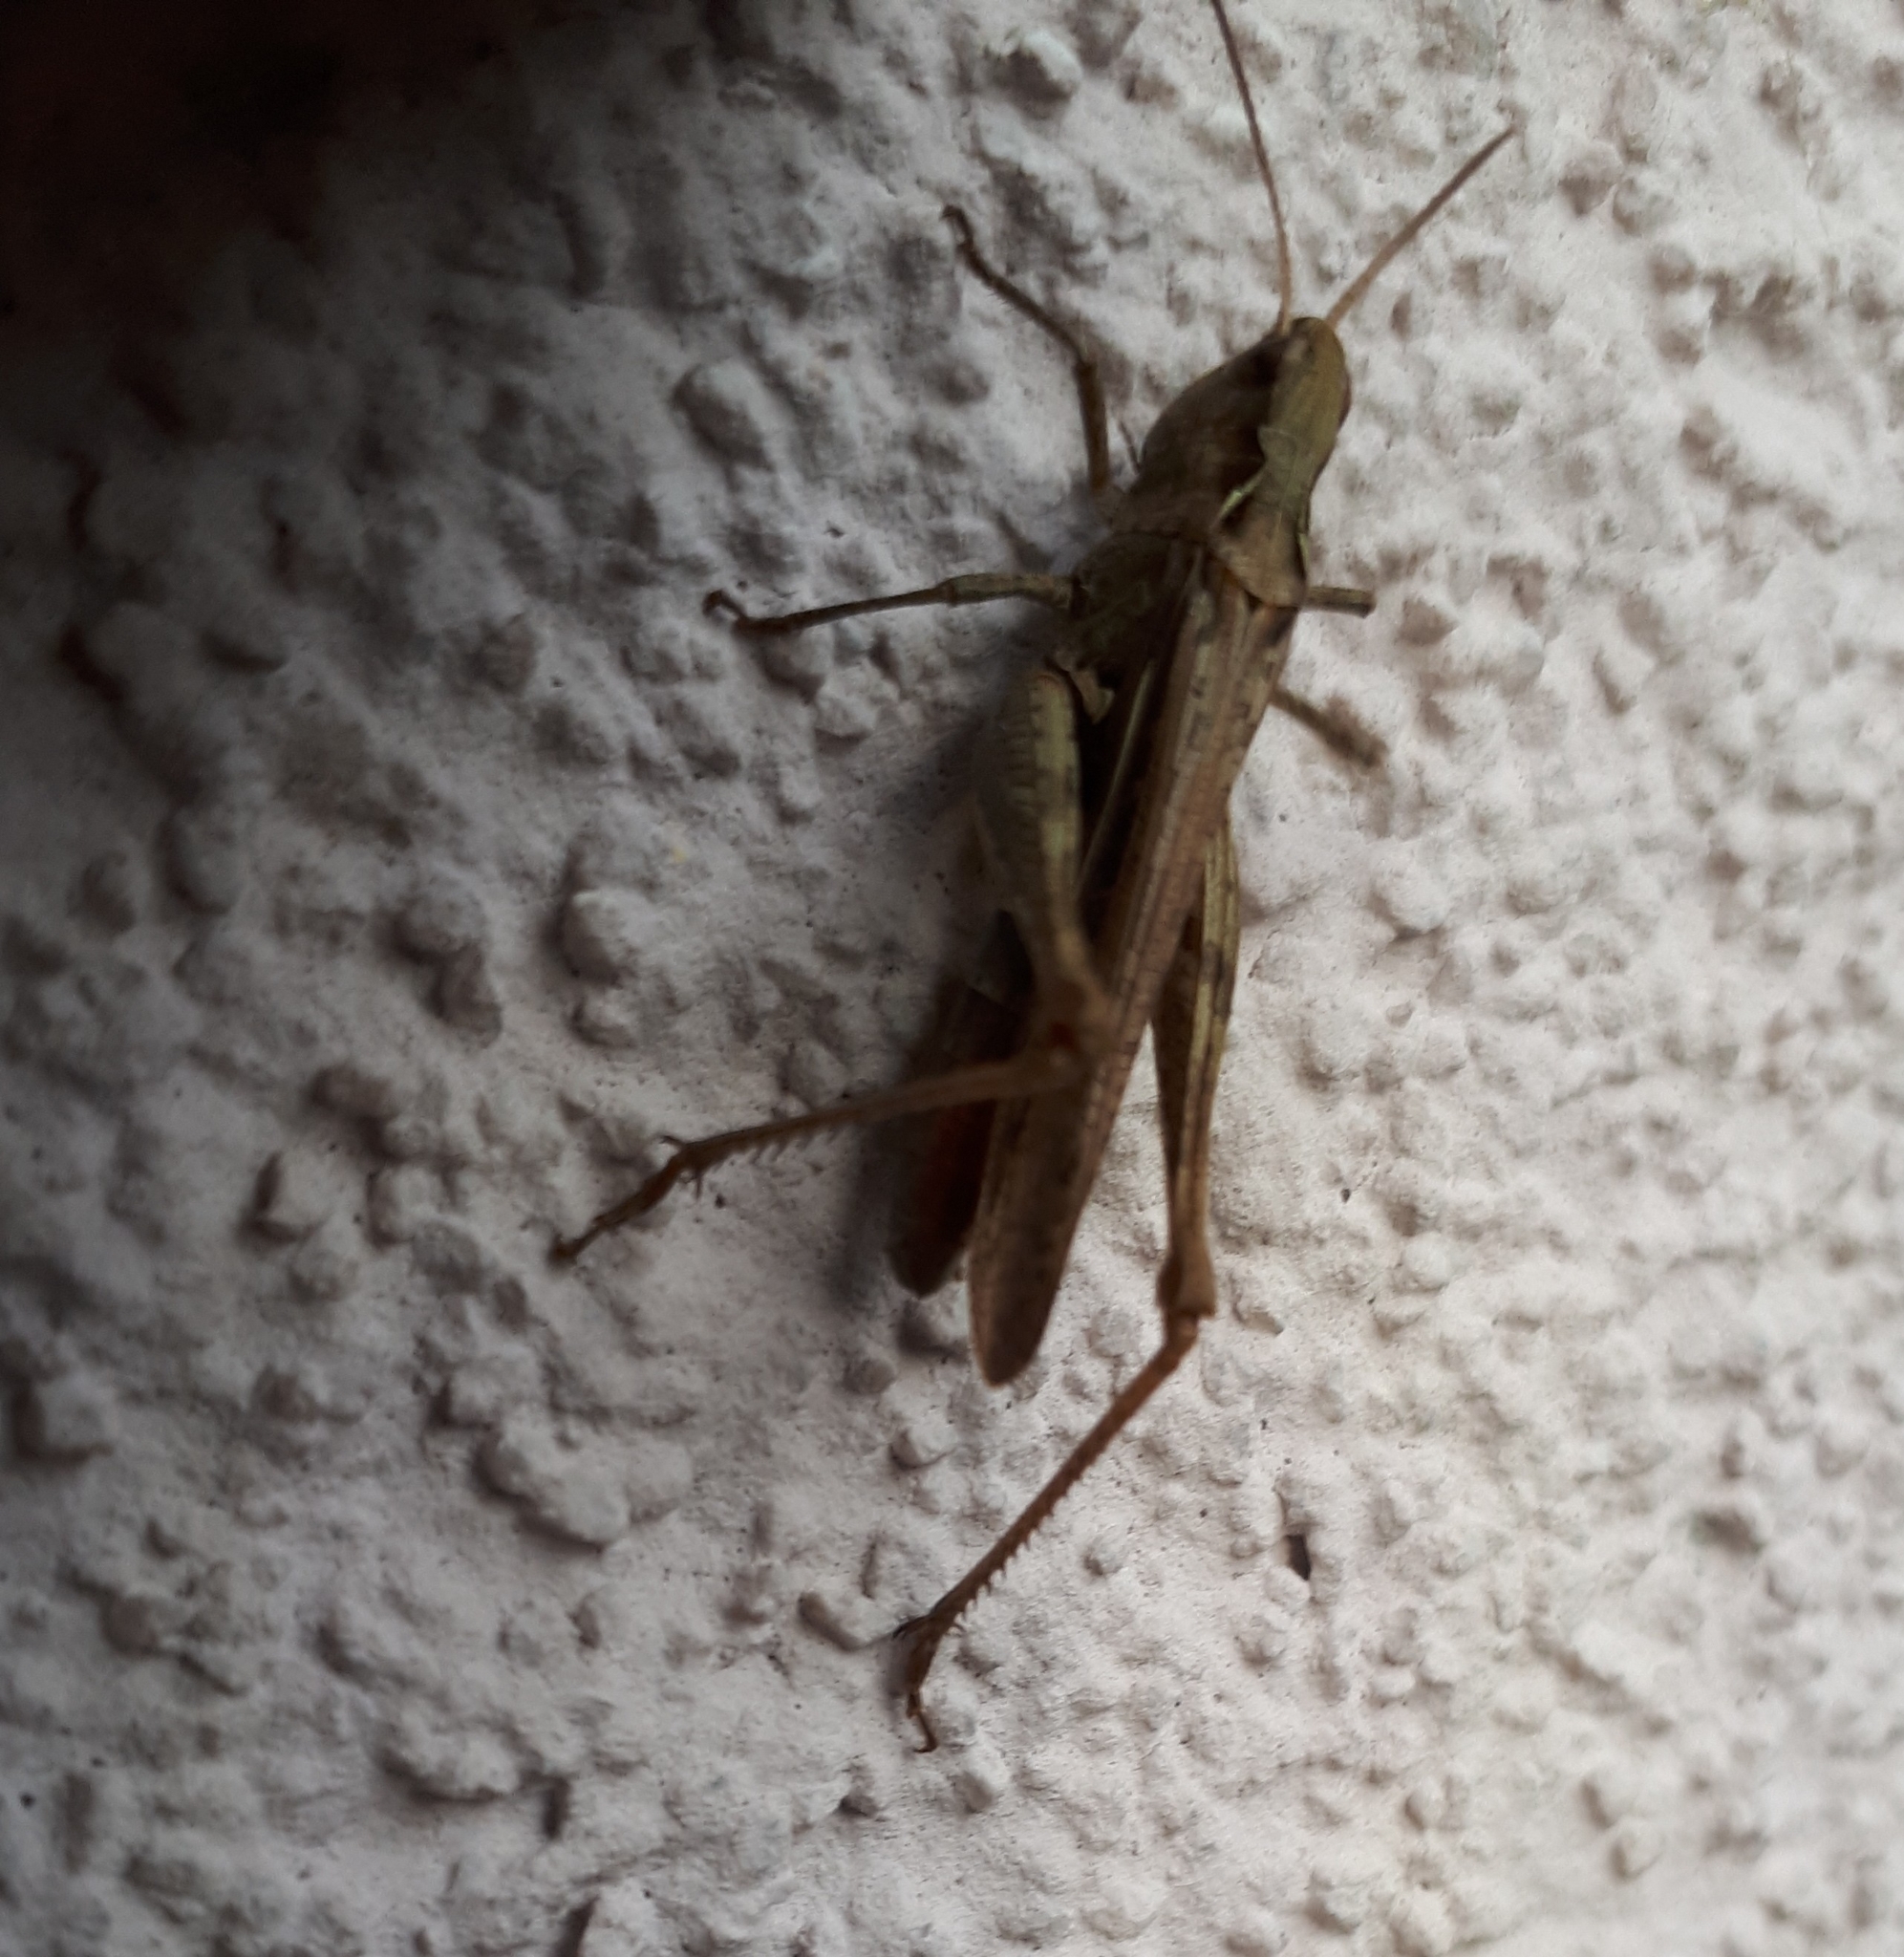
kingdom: Animalia
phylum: Arthropoda
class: Insecta
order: Orthoptera
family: Acrididae
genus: Chorthippus
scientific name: Chorthippus brunneus
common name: Field grasshopper
